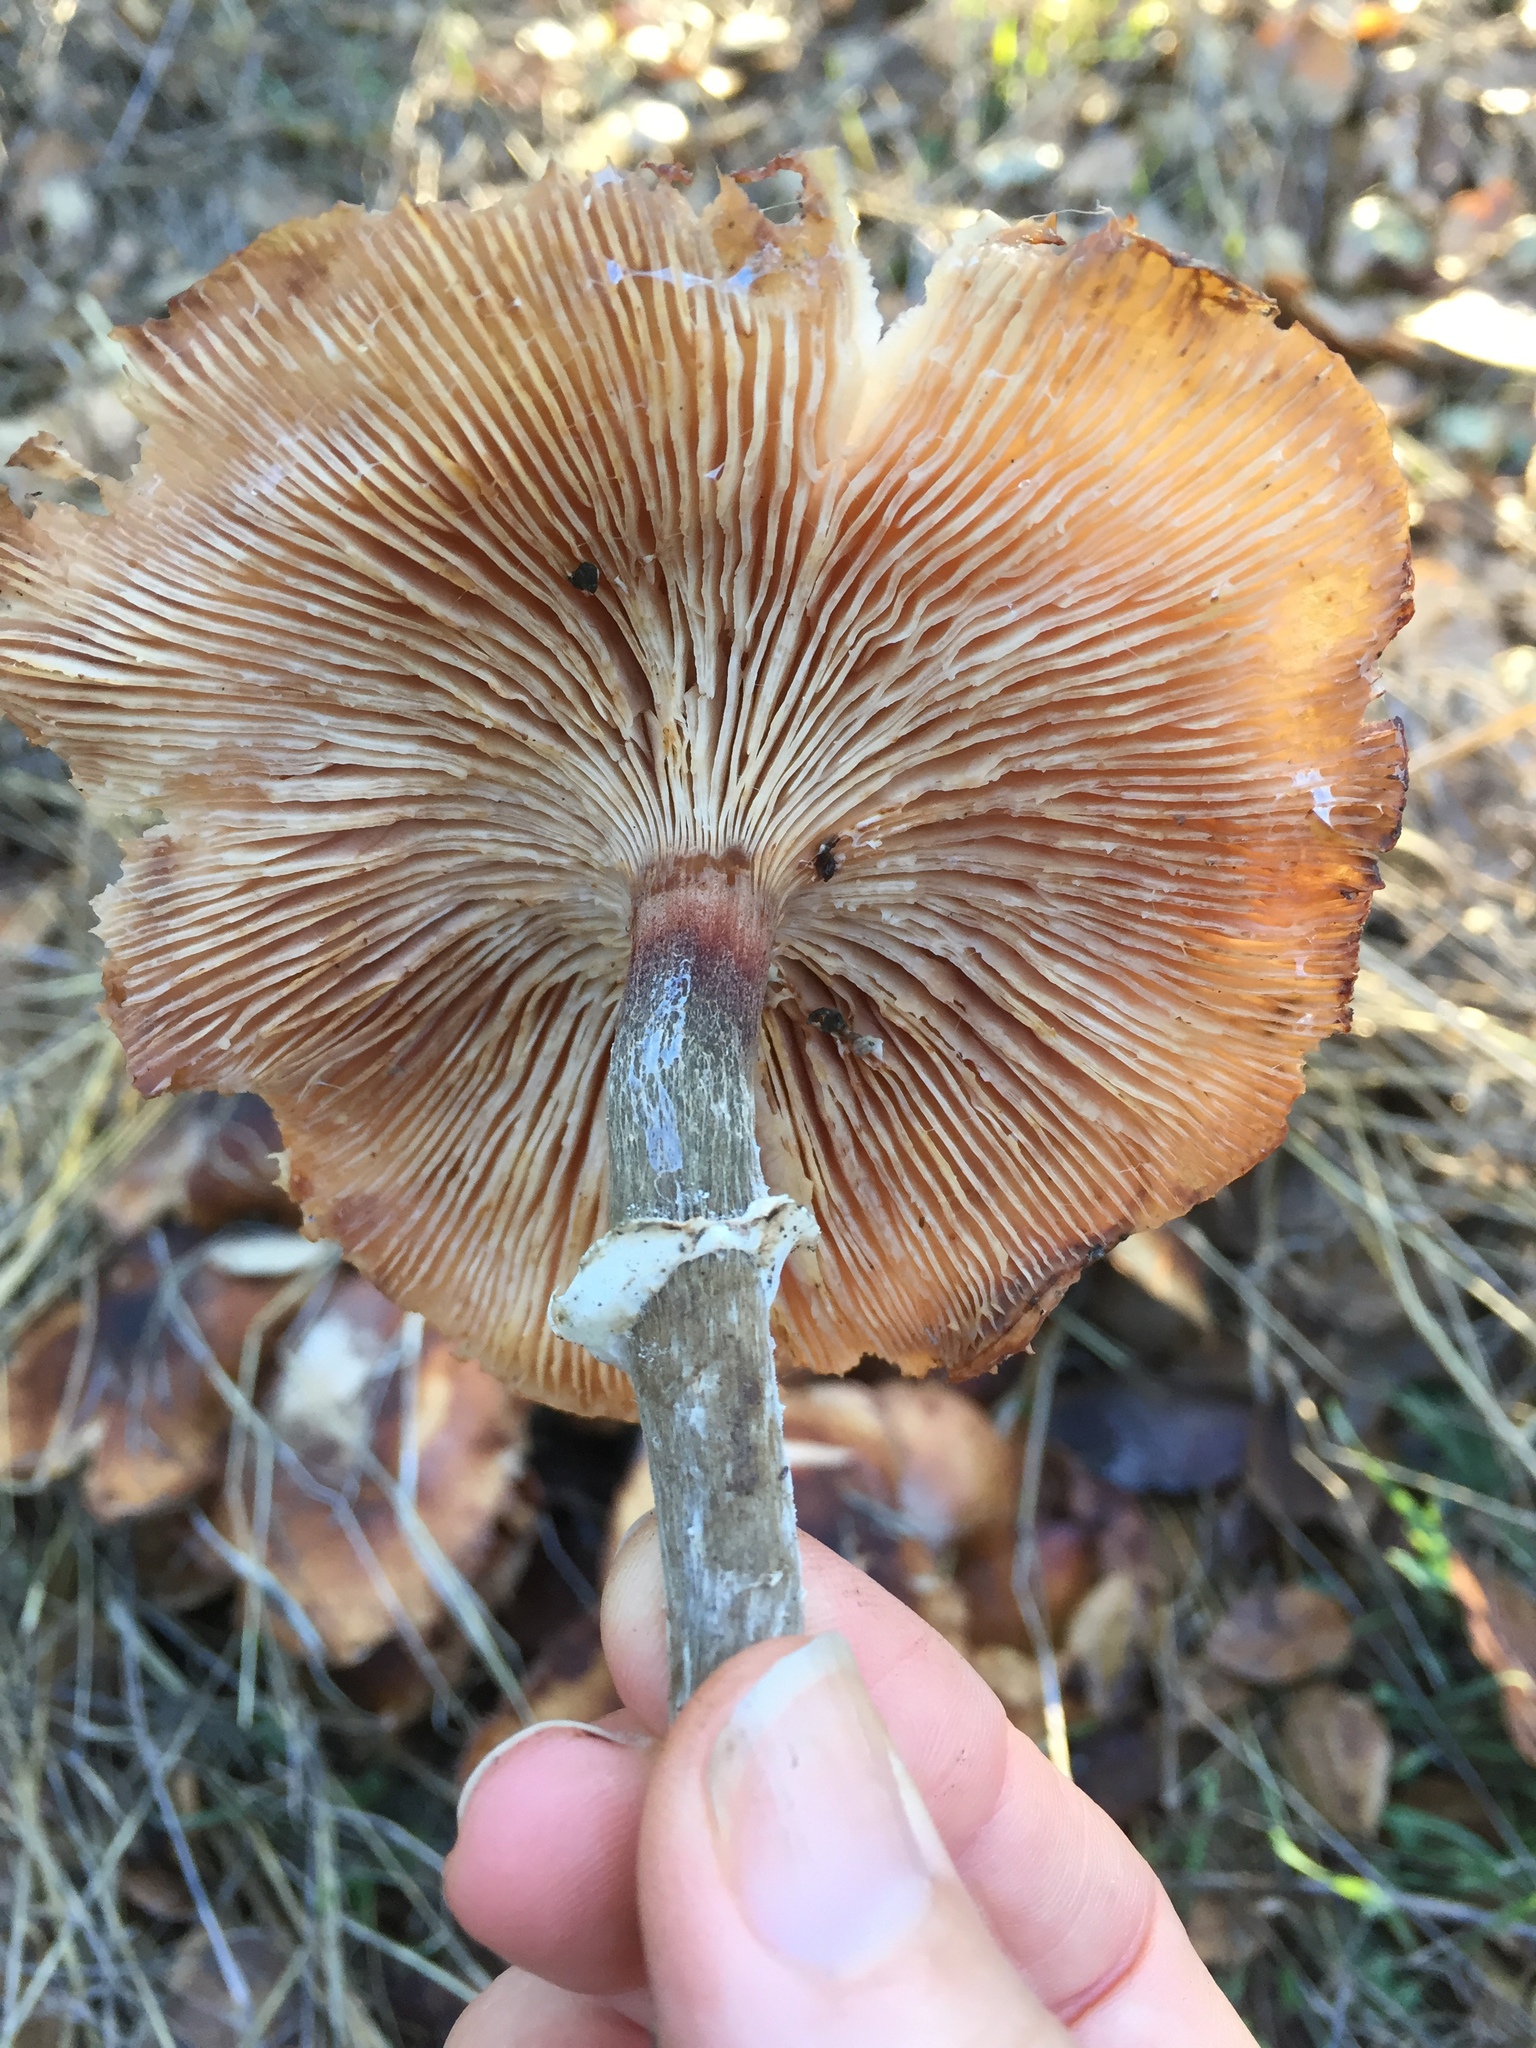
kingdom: Fungi
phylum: Basidiomycota
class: Agaricomycetes
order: Agaricales
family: Physalacriaceae
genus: Armillaria
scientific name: Armillaria mellea
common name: Honey fungus
